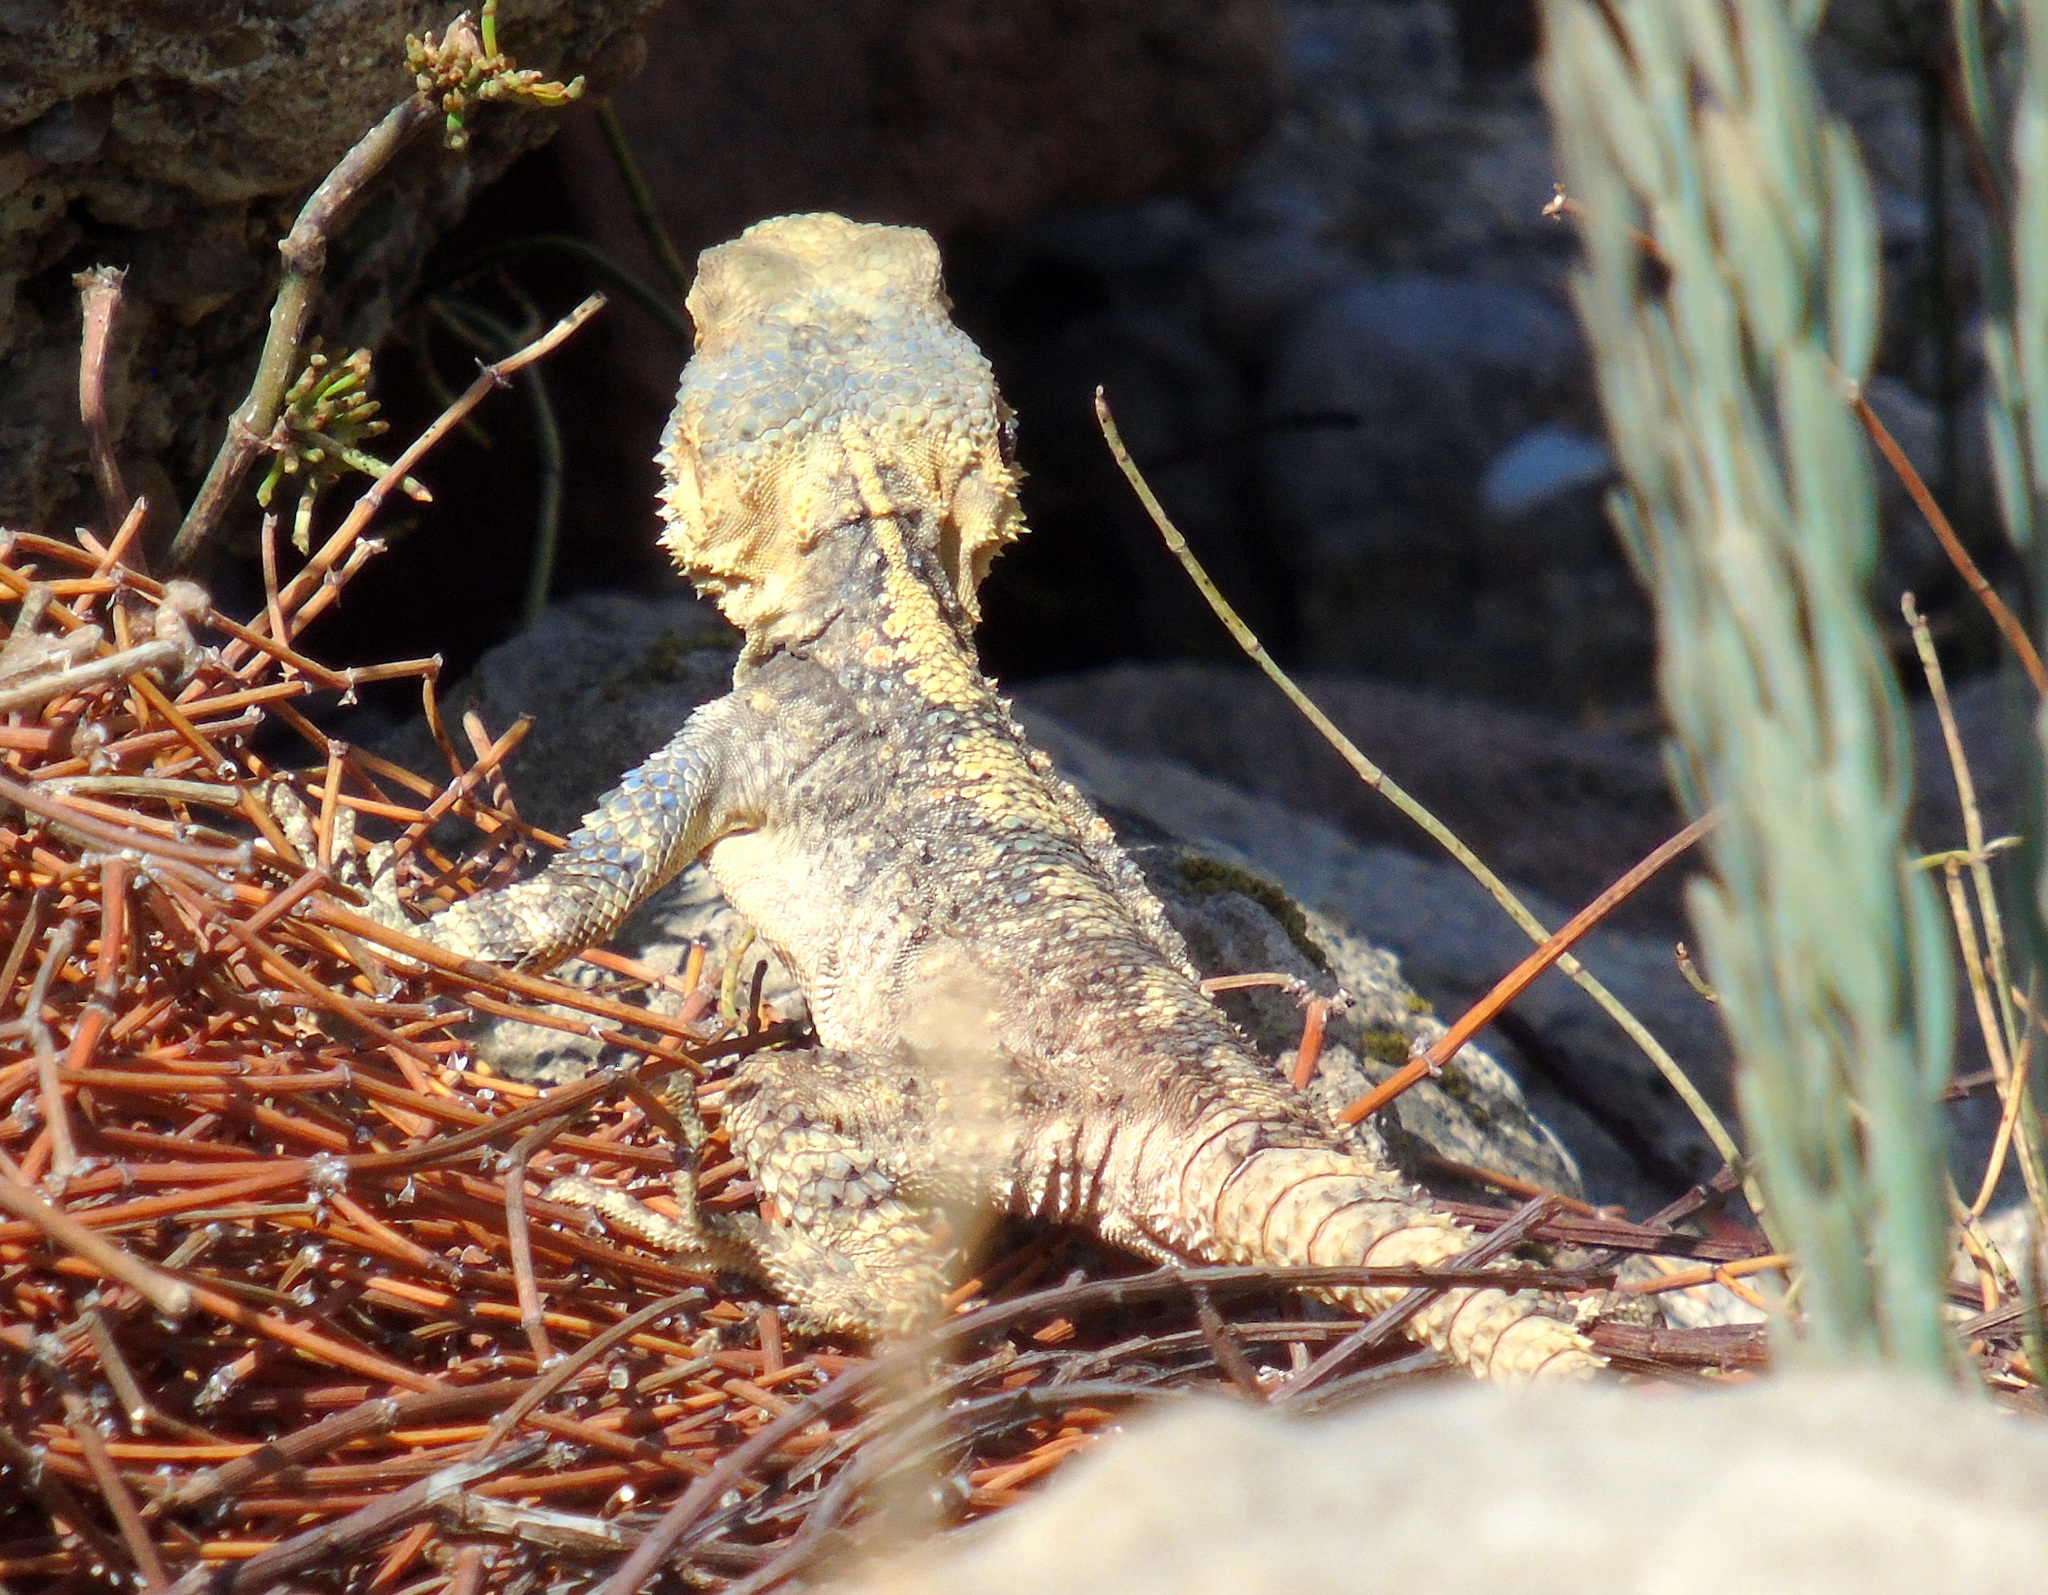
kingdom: Animalia
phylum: Chordata
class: Squamata
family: Agamidae
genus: Stellagama
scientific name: Stellagama stellio
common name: Starred agama
